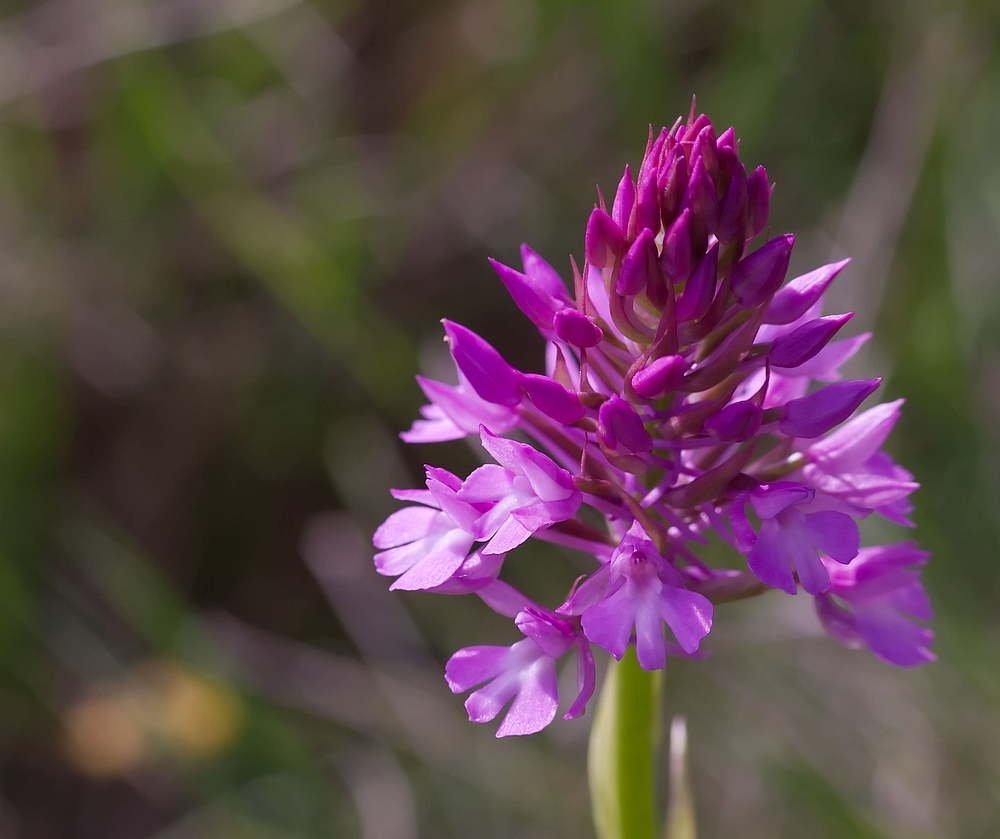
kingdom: Plantae
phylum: Tracheophyta
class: Liliopsida
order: Asparagales
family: Orchidaceae
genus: Anacamptis
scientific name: Anacamptis pyramidalis
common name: Pyramidal orchid
